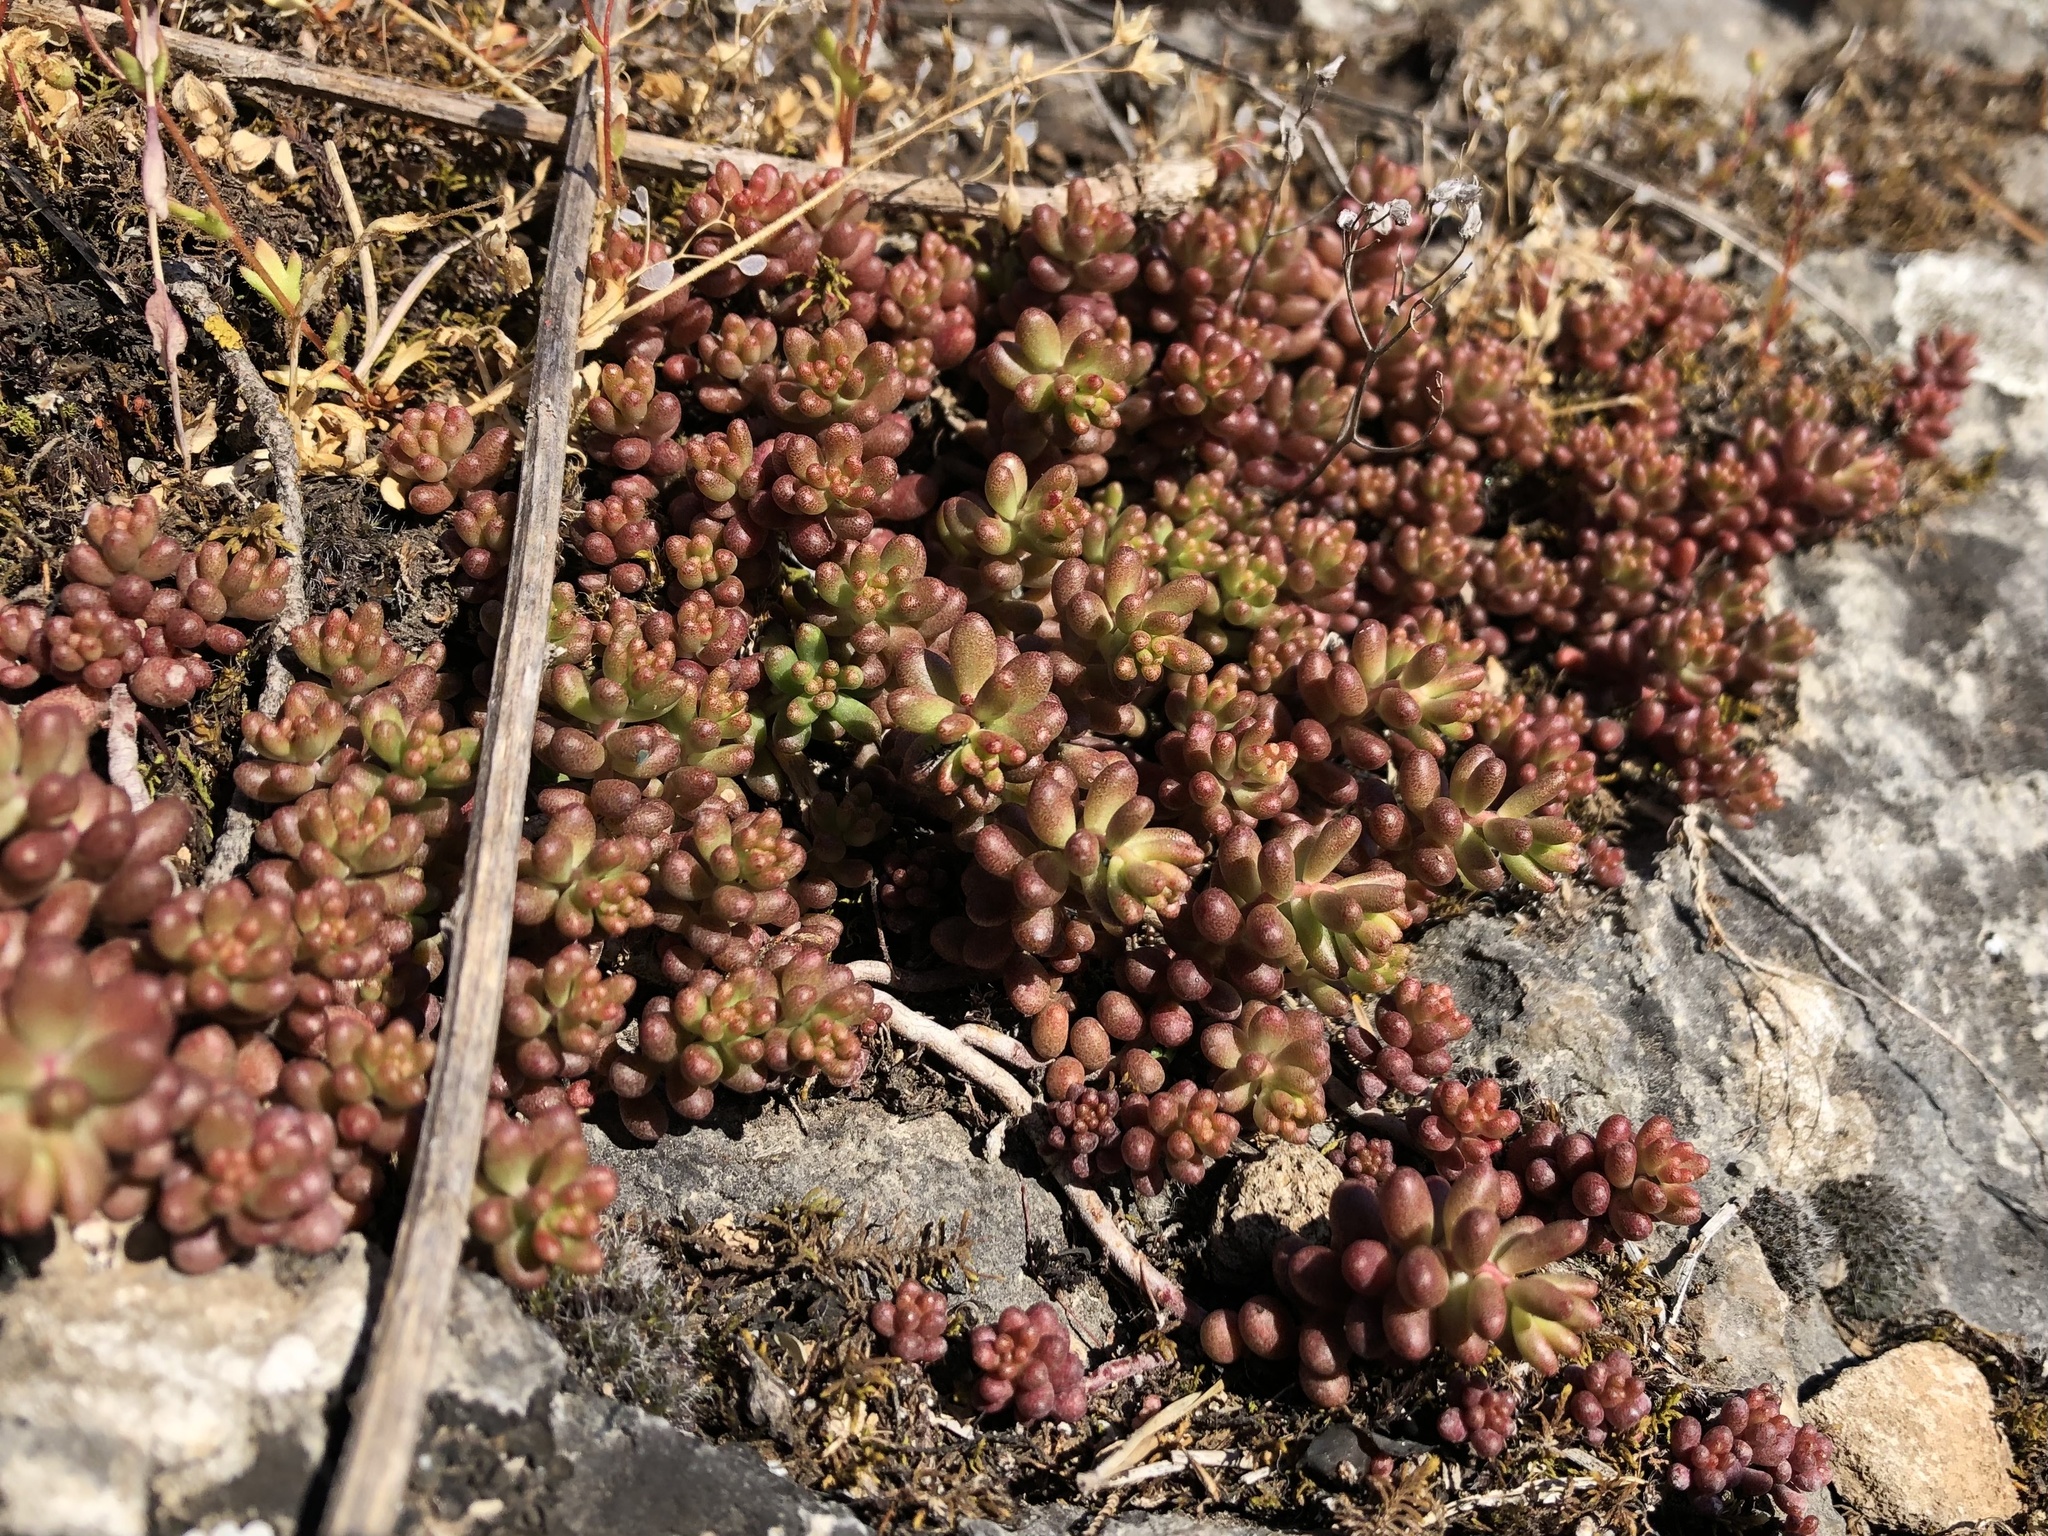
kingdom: Plantae
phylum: Tracheophyta
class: Magnoliopsida
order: Saxifragales
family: Crassulaceae
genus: Sedum
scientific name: Sedum album
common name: White stonecrop
